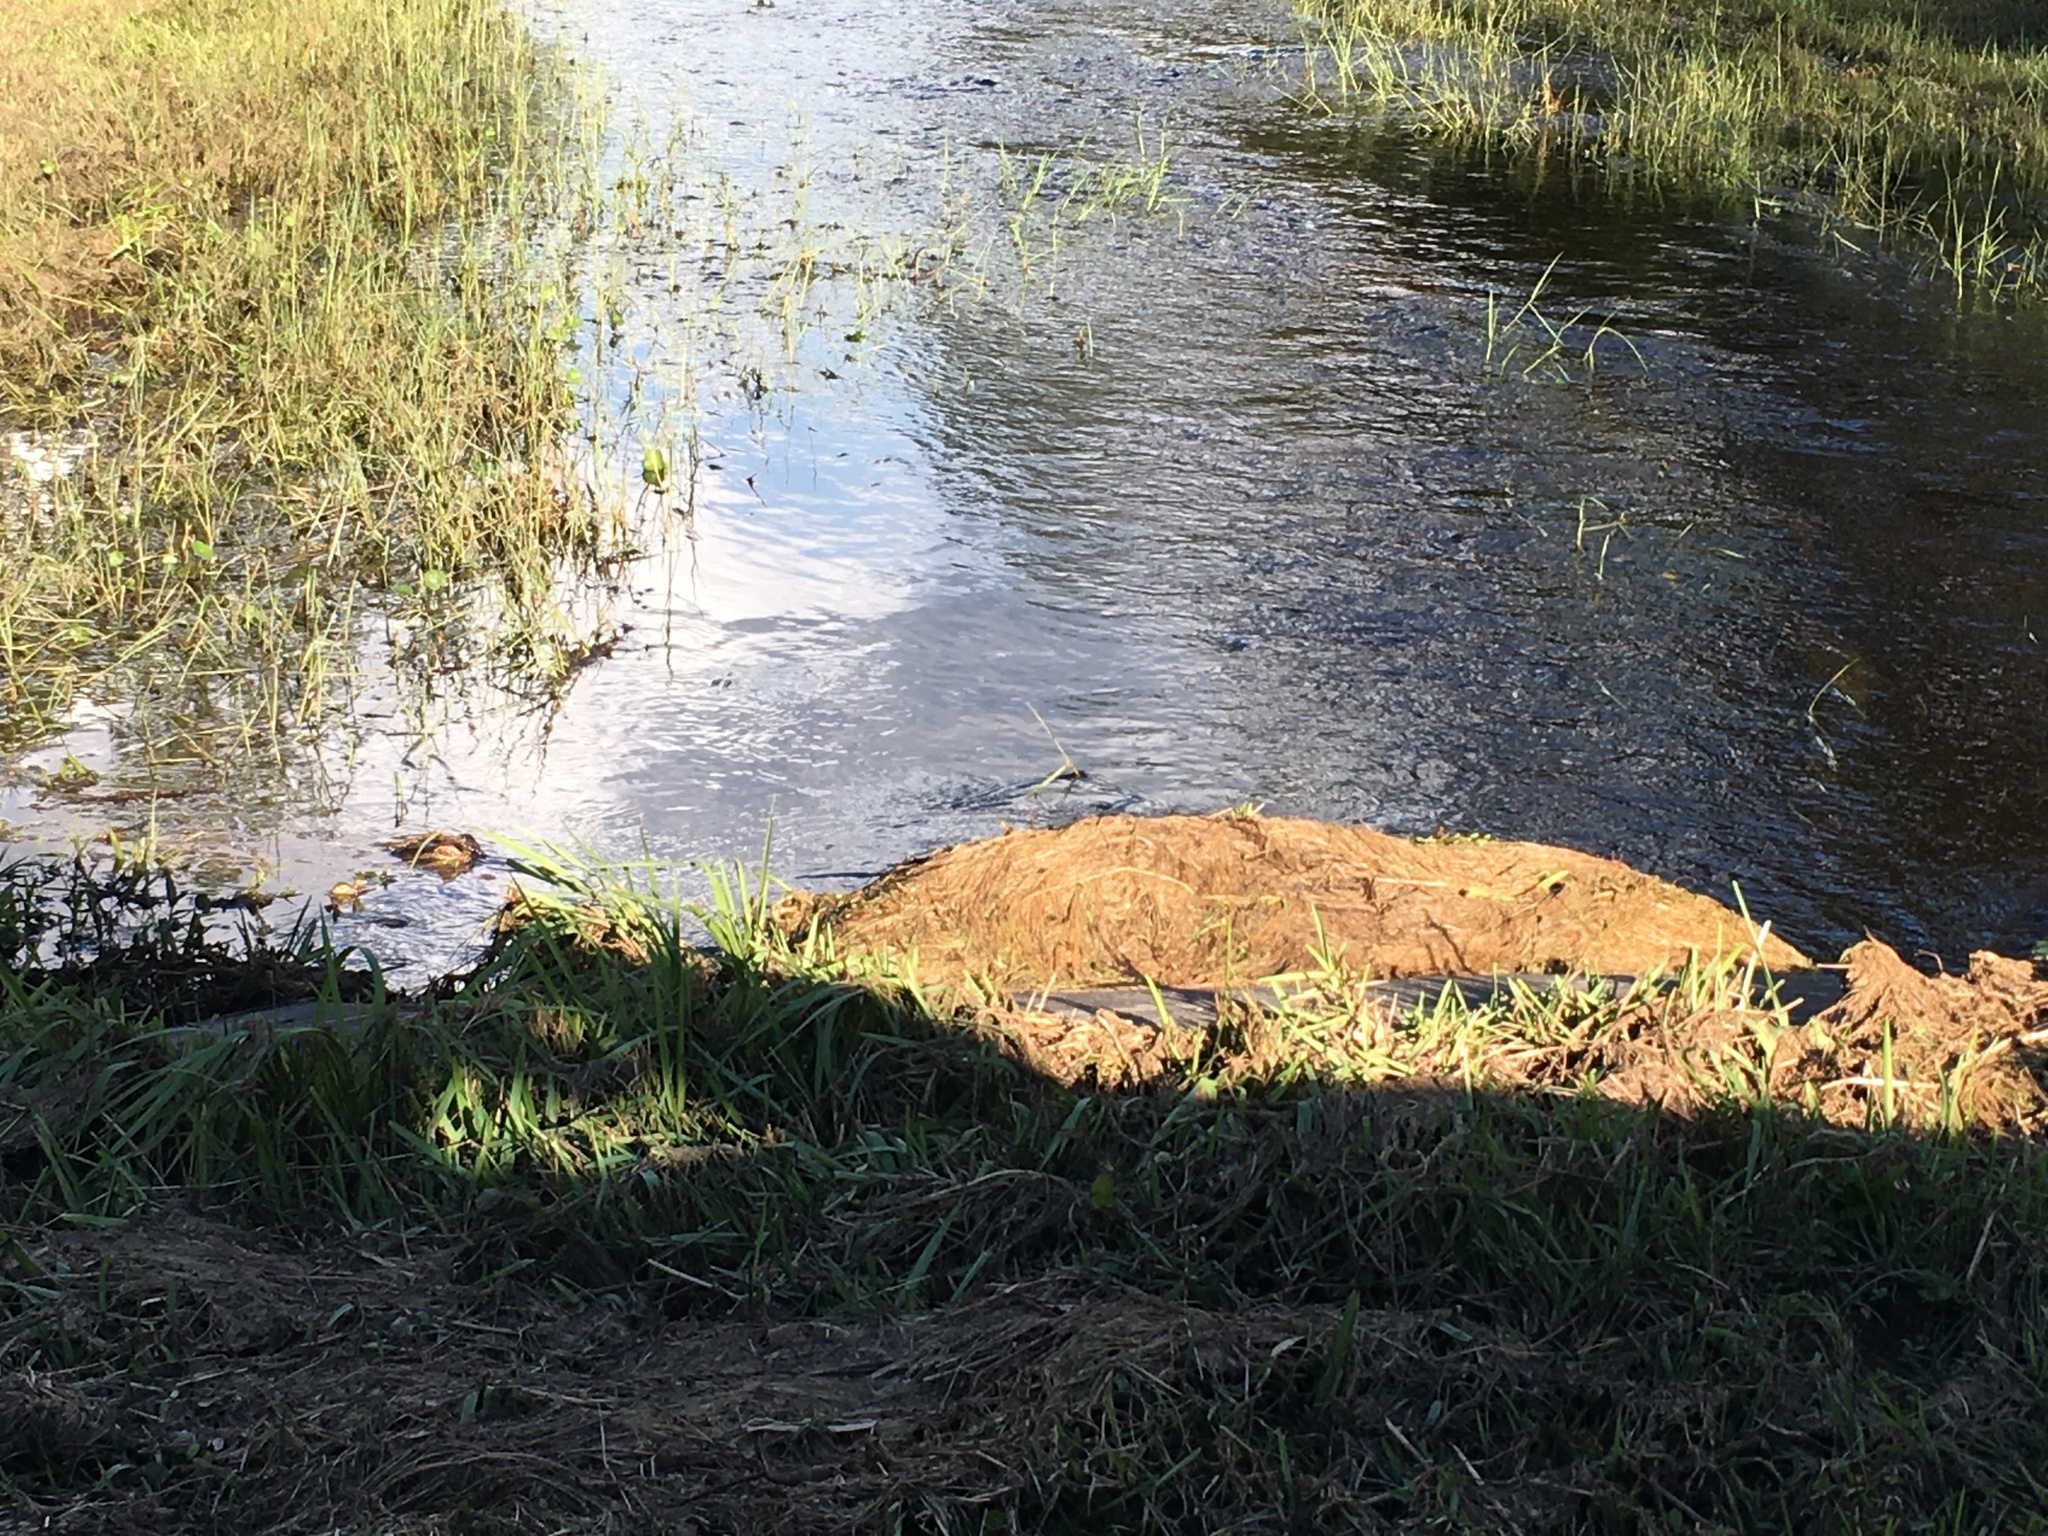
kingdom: Animalia
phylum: Chordata
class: Crocodylia
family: Alligatoridae
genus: Alligator
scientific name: Alligator mississippiensis
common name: American alligator
